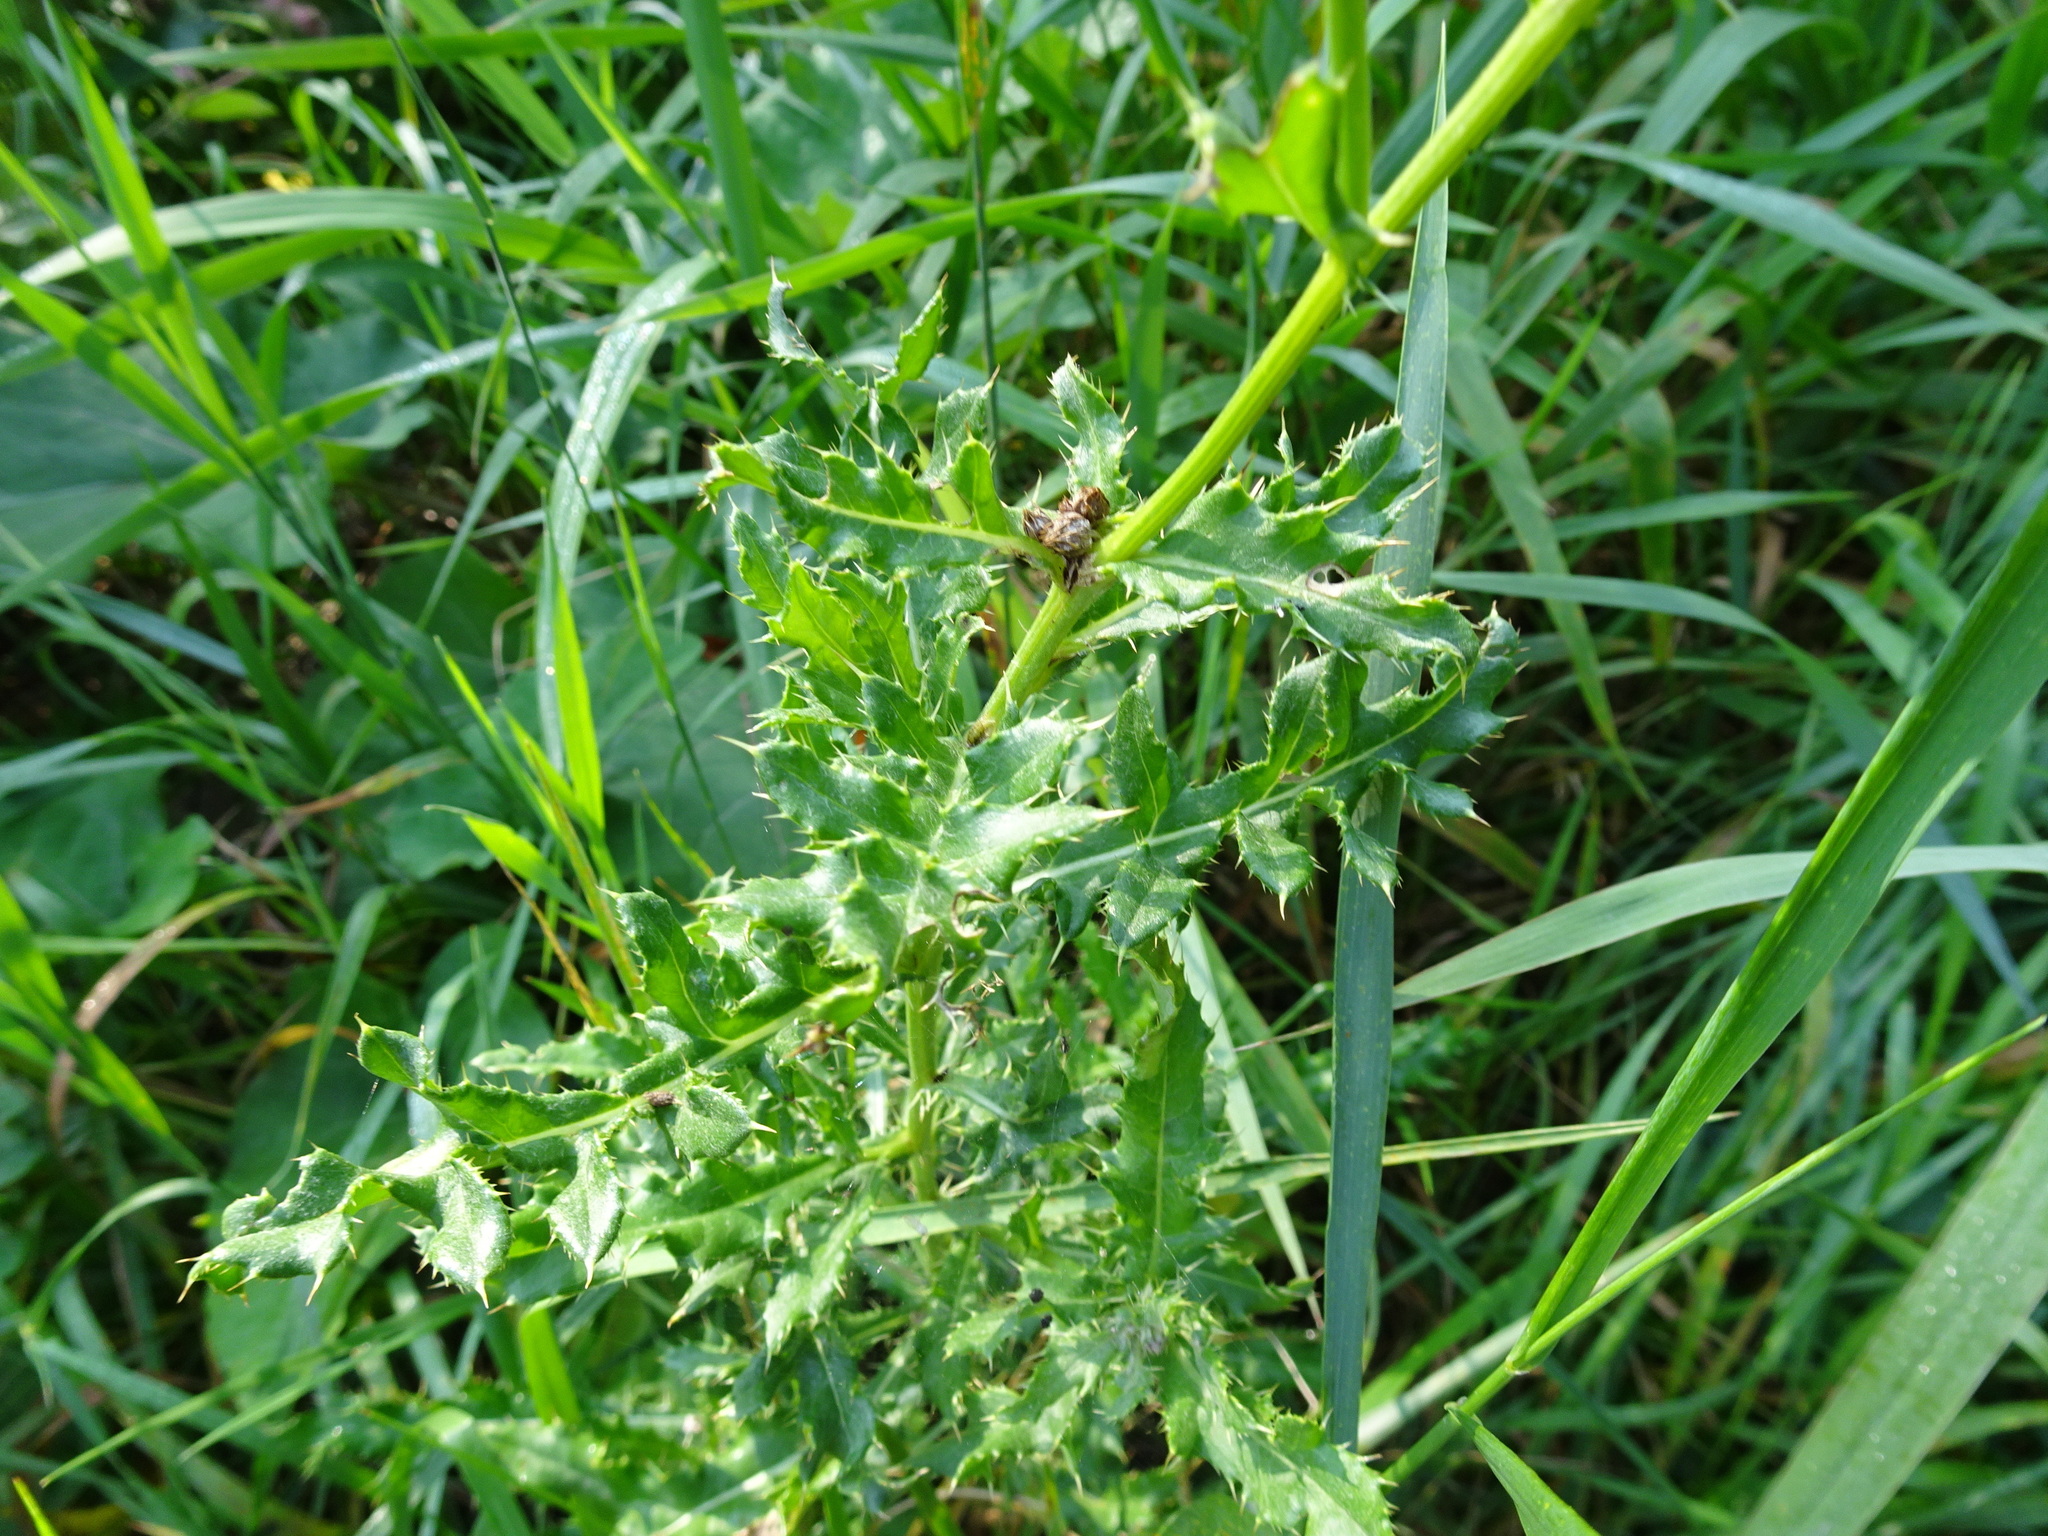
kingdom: Plantae
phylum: Tracheophyta
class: Magnoliopsida
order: Asterales
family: Asteraceae
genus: Cirsium
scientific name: Cirsium arvense
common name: Creeping thistle
